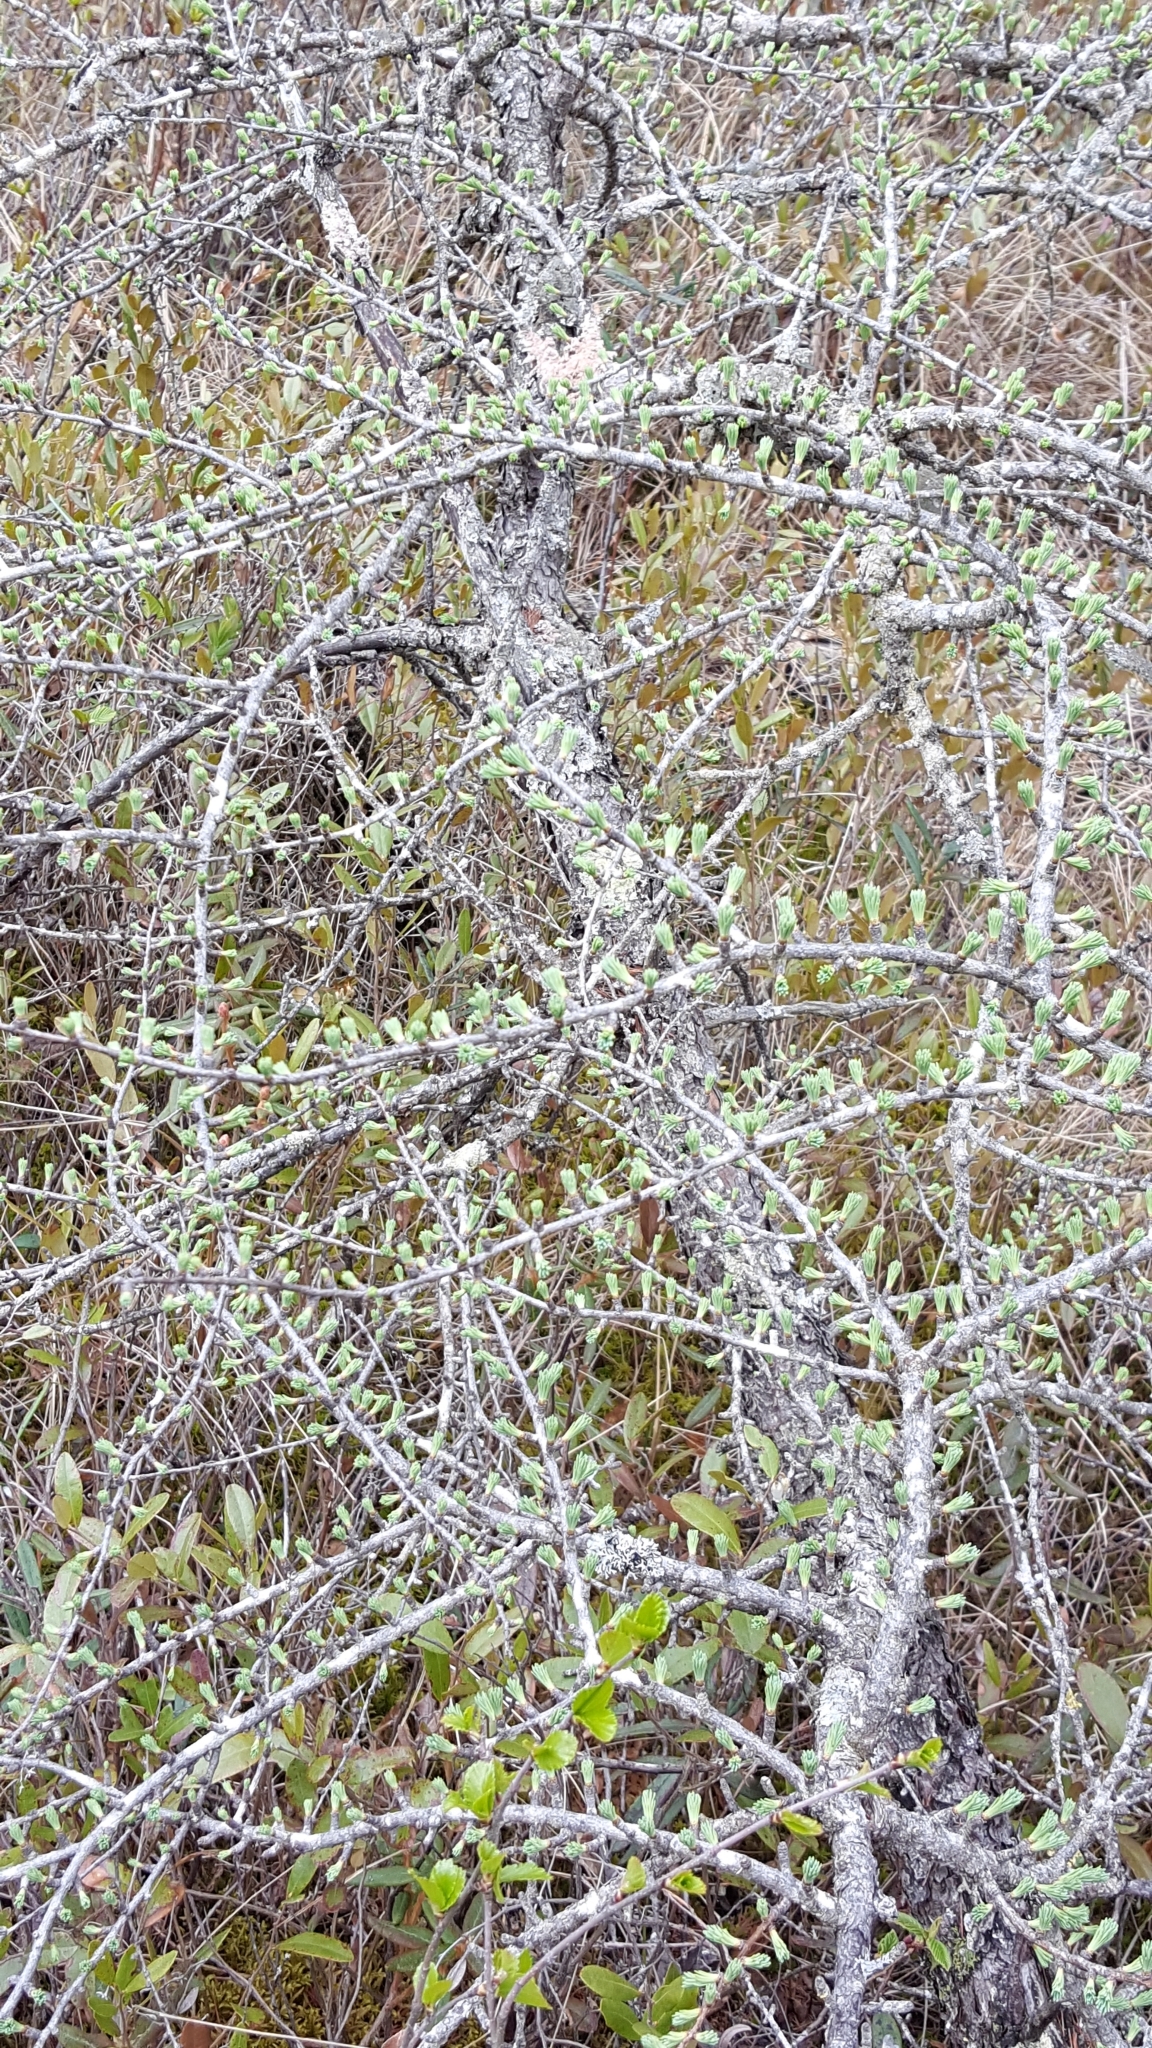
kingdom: Plantae
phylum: Tracheophyta
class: Pinopsida
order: Pinales
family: Pinaceae
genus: Larix
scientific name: Larix laricina
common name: American larch
